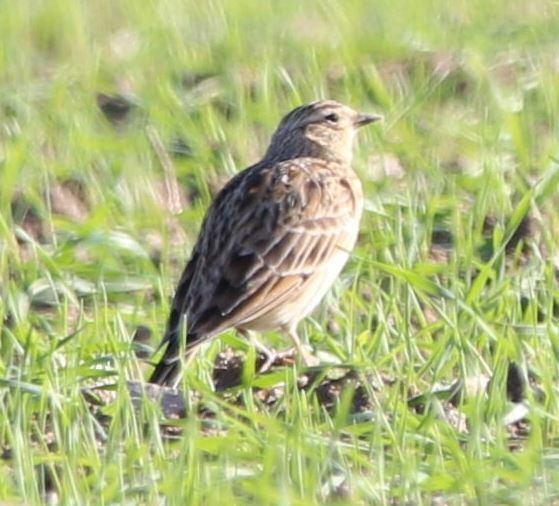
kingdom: Animalia
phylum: Chordata
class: Aves
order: Passeriformes
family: Alaudidae
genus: Alauda
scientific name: Alauda arvensis
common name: Eurasian skylark
